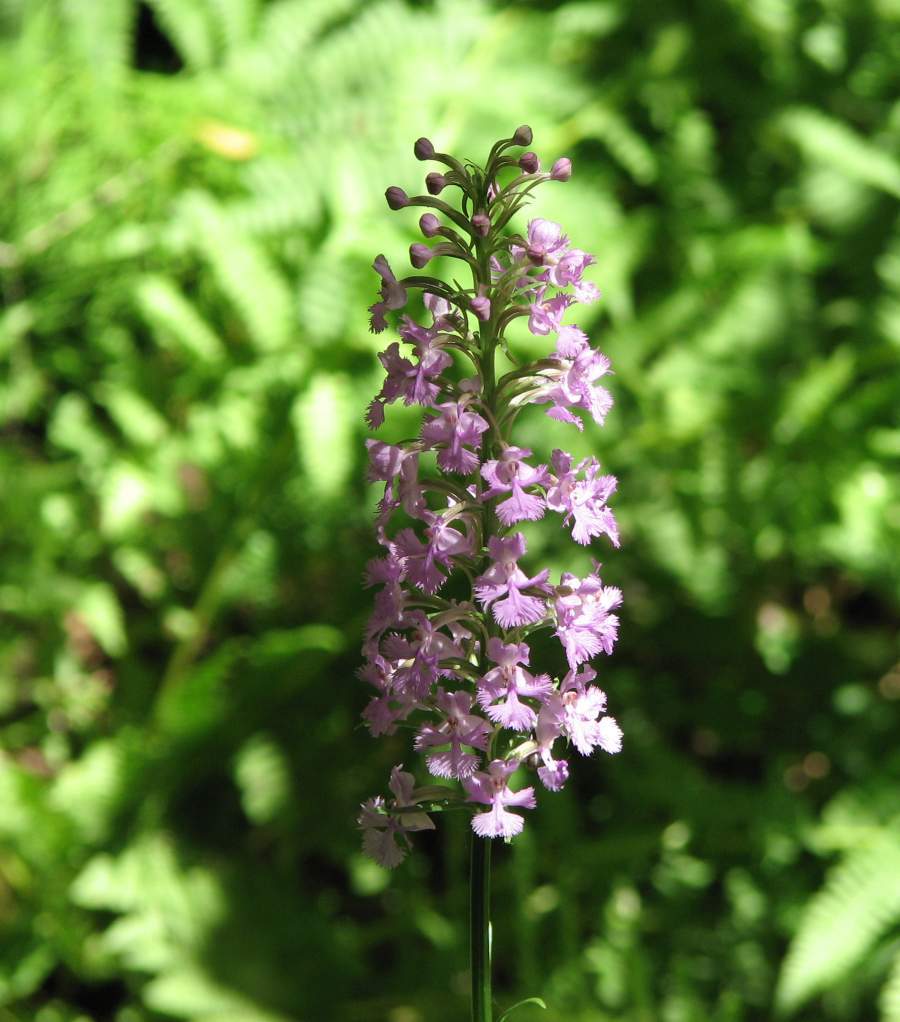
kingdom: Plantae
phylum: Tracheophyta
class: Liliopsida
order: Asparagales
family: Orchidaceae
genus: Platanthera
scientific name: Platanthera psycodes
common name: Lesser purple fringed orchid
